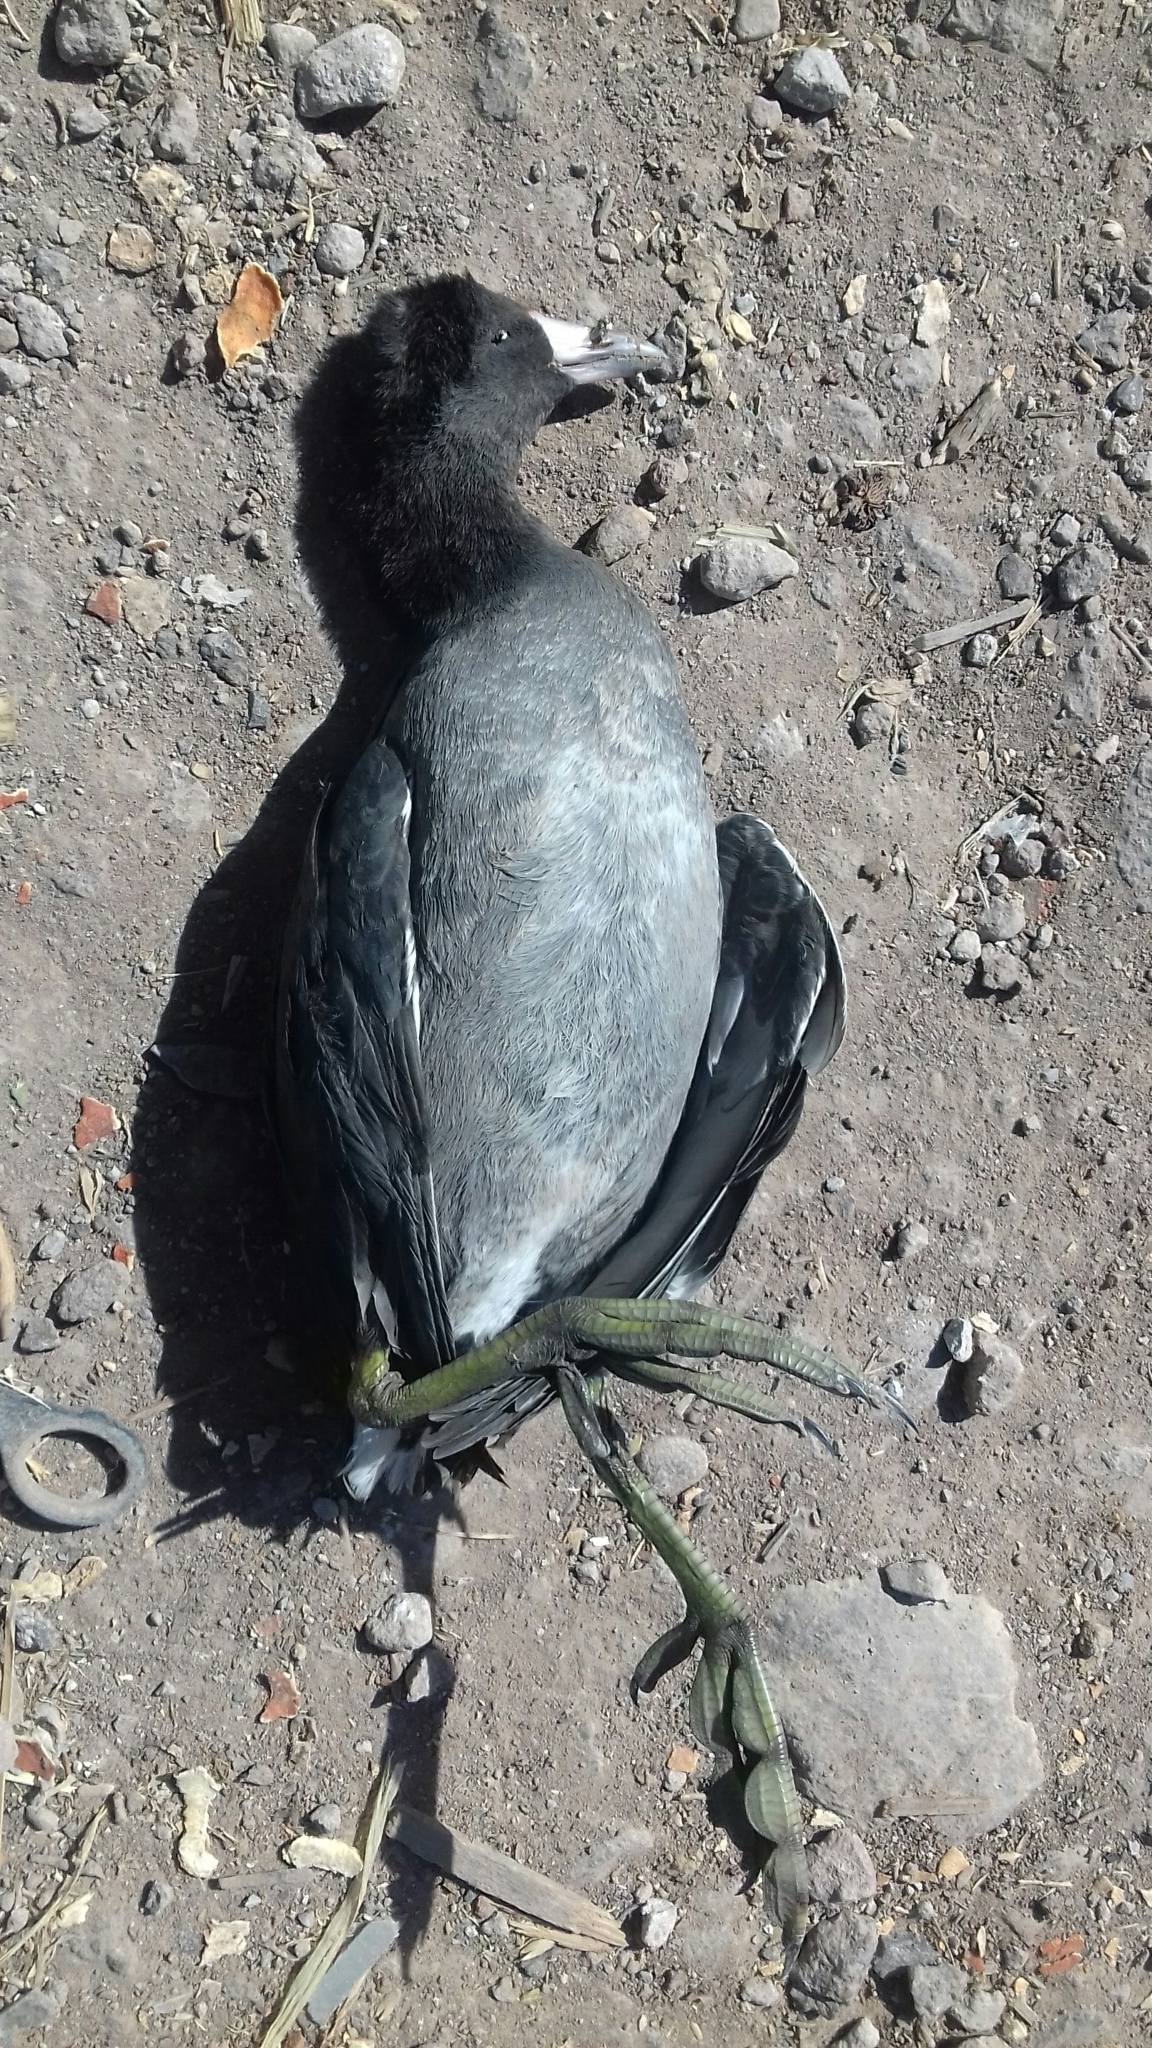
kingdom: Animalia
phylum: Chordata
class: Aves
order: Gruiformes
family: Rallidae
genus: Fulica
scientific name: Fulica americana
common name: American coot
